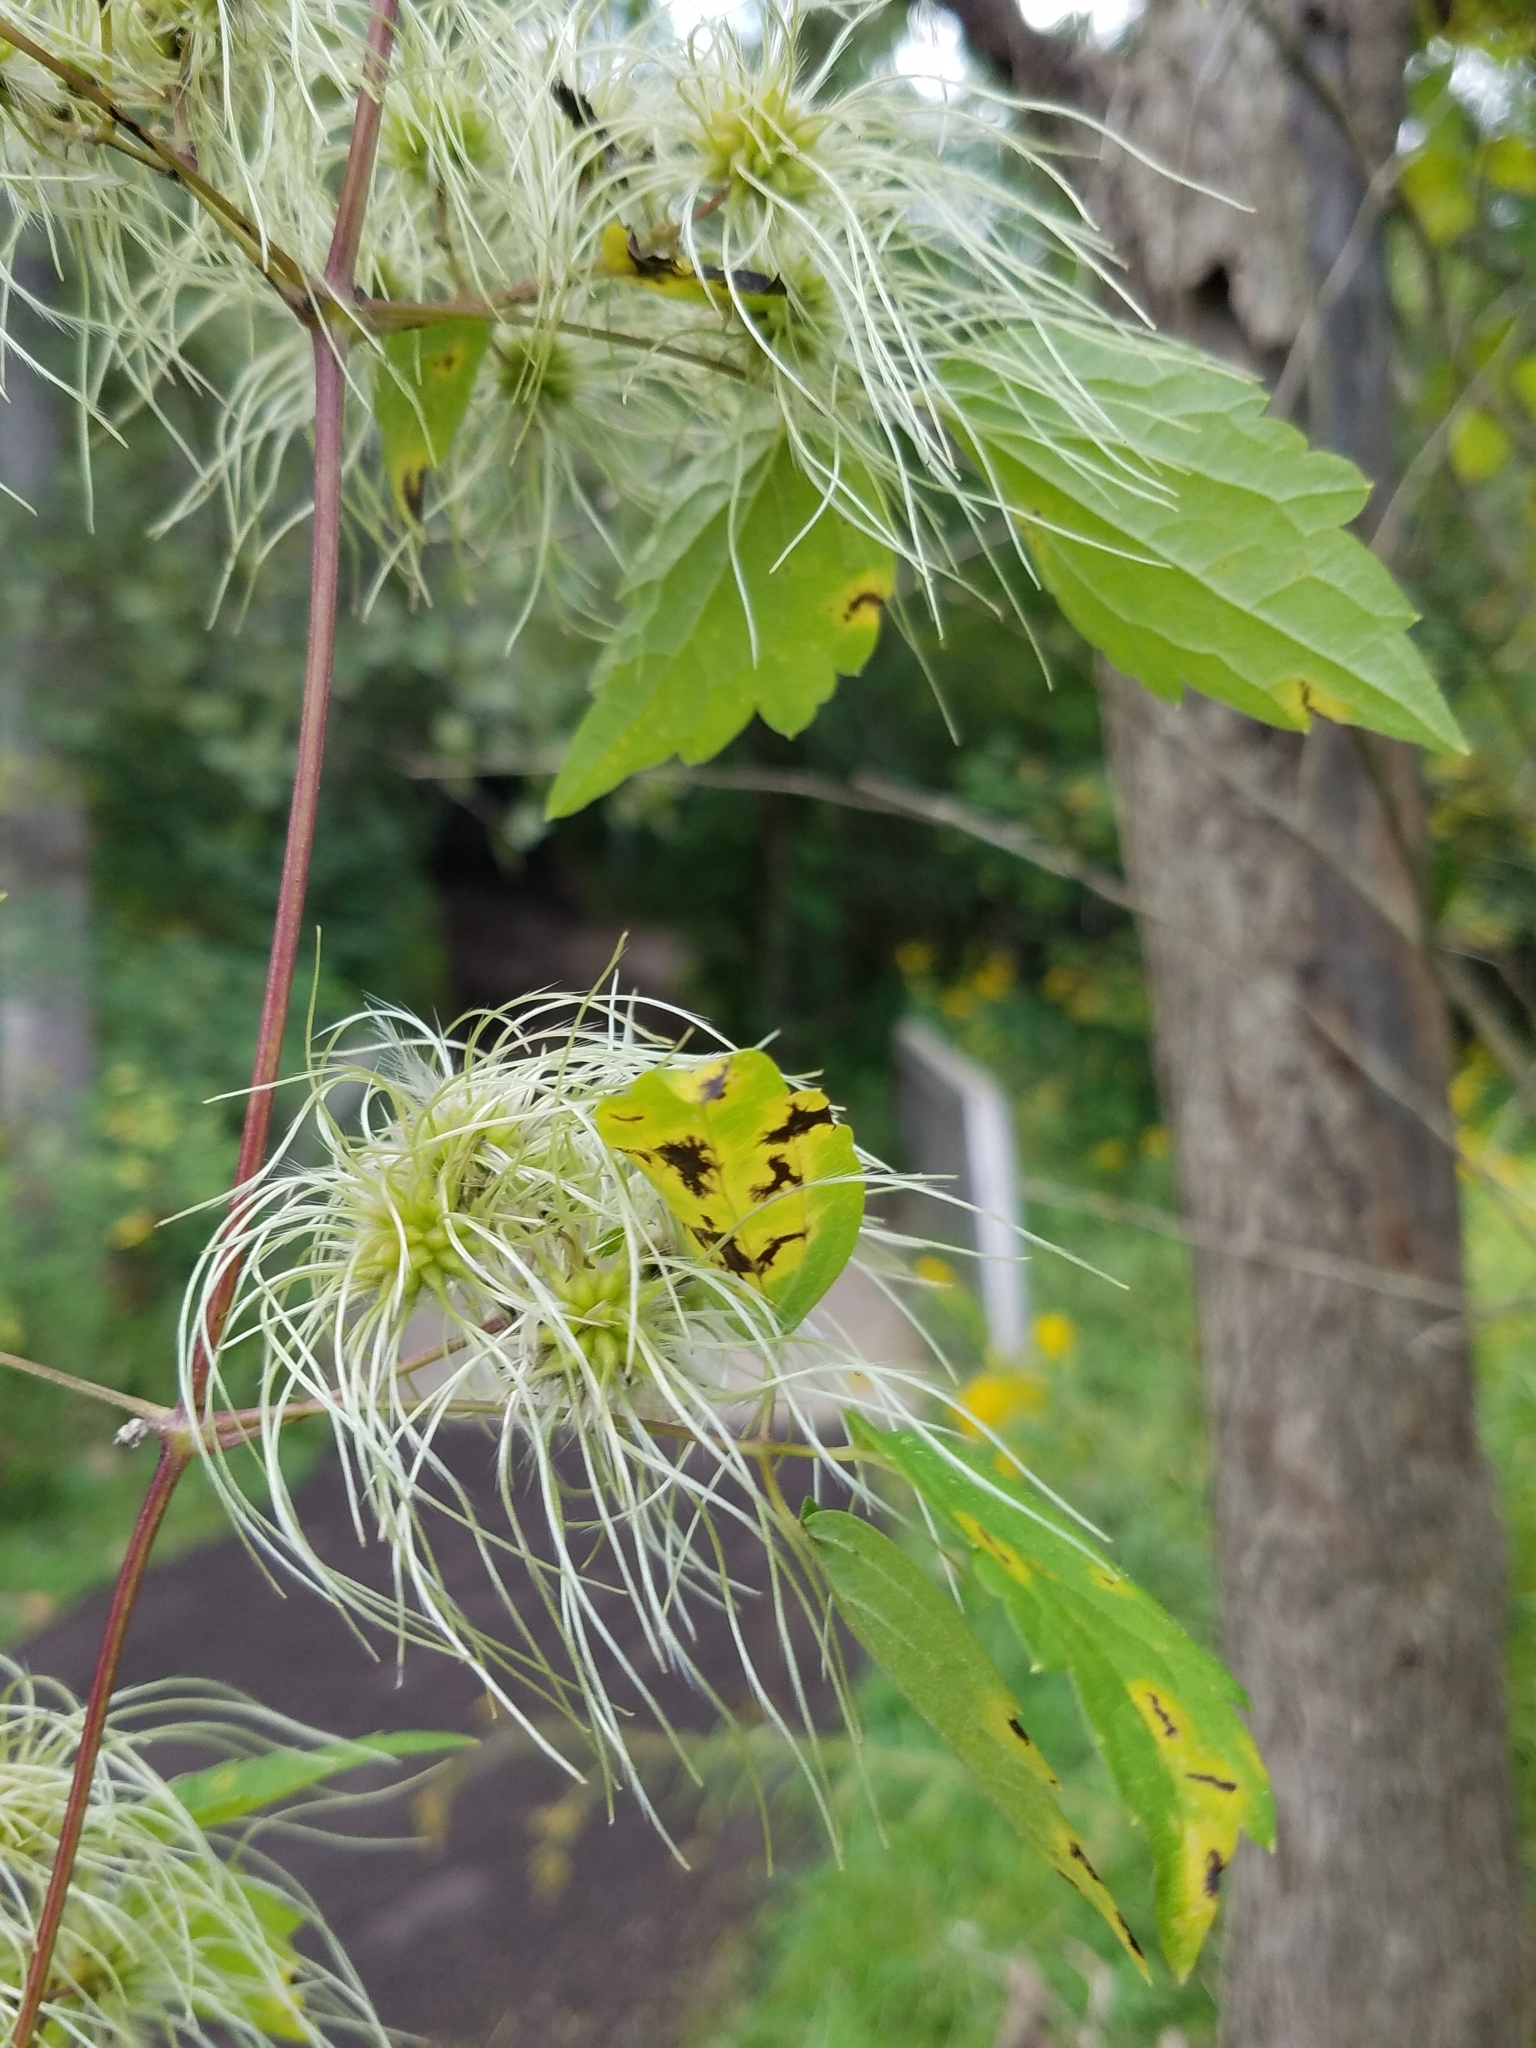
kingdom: Plantae
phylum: Tracheophyta
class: Magnoliopsida
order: Ranunculales
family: Ranunculaceae
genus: Clematis
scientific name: Clematis virginiana
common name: Virgin's-bower
